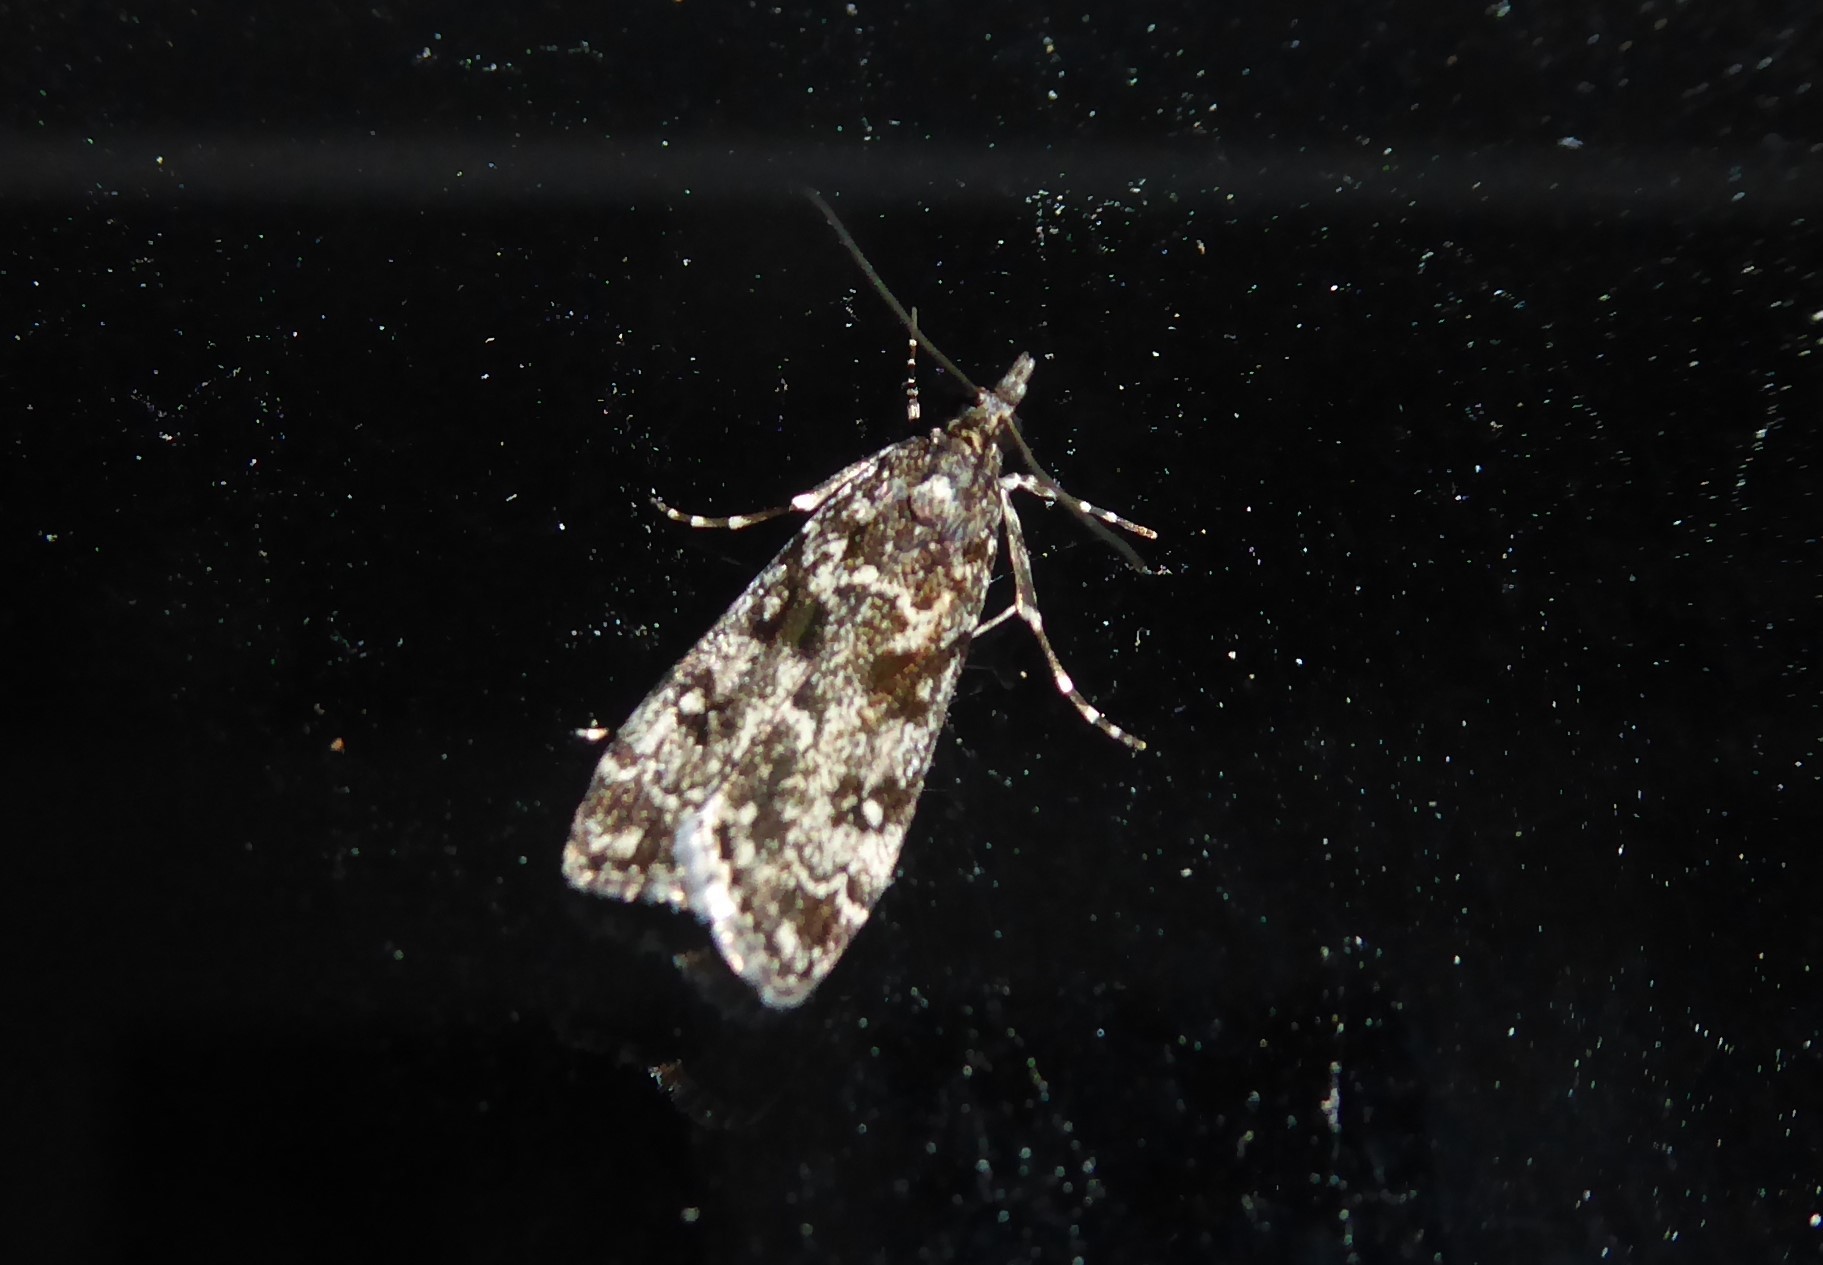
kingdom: Animalia
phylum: Arthropoda
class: Insecta
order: Lepidoptera
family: Crambidae
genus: Eudonia
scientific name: Eudonia philerga
